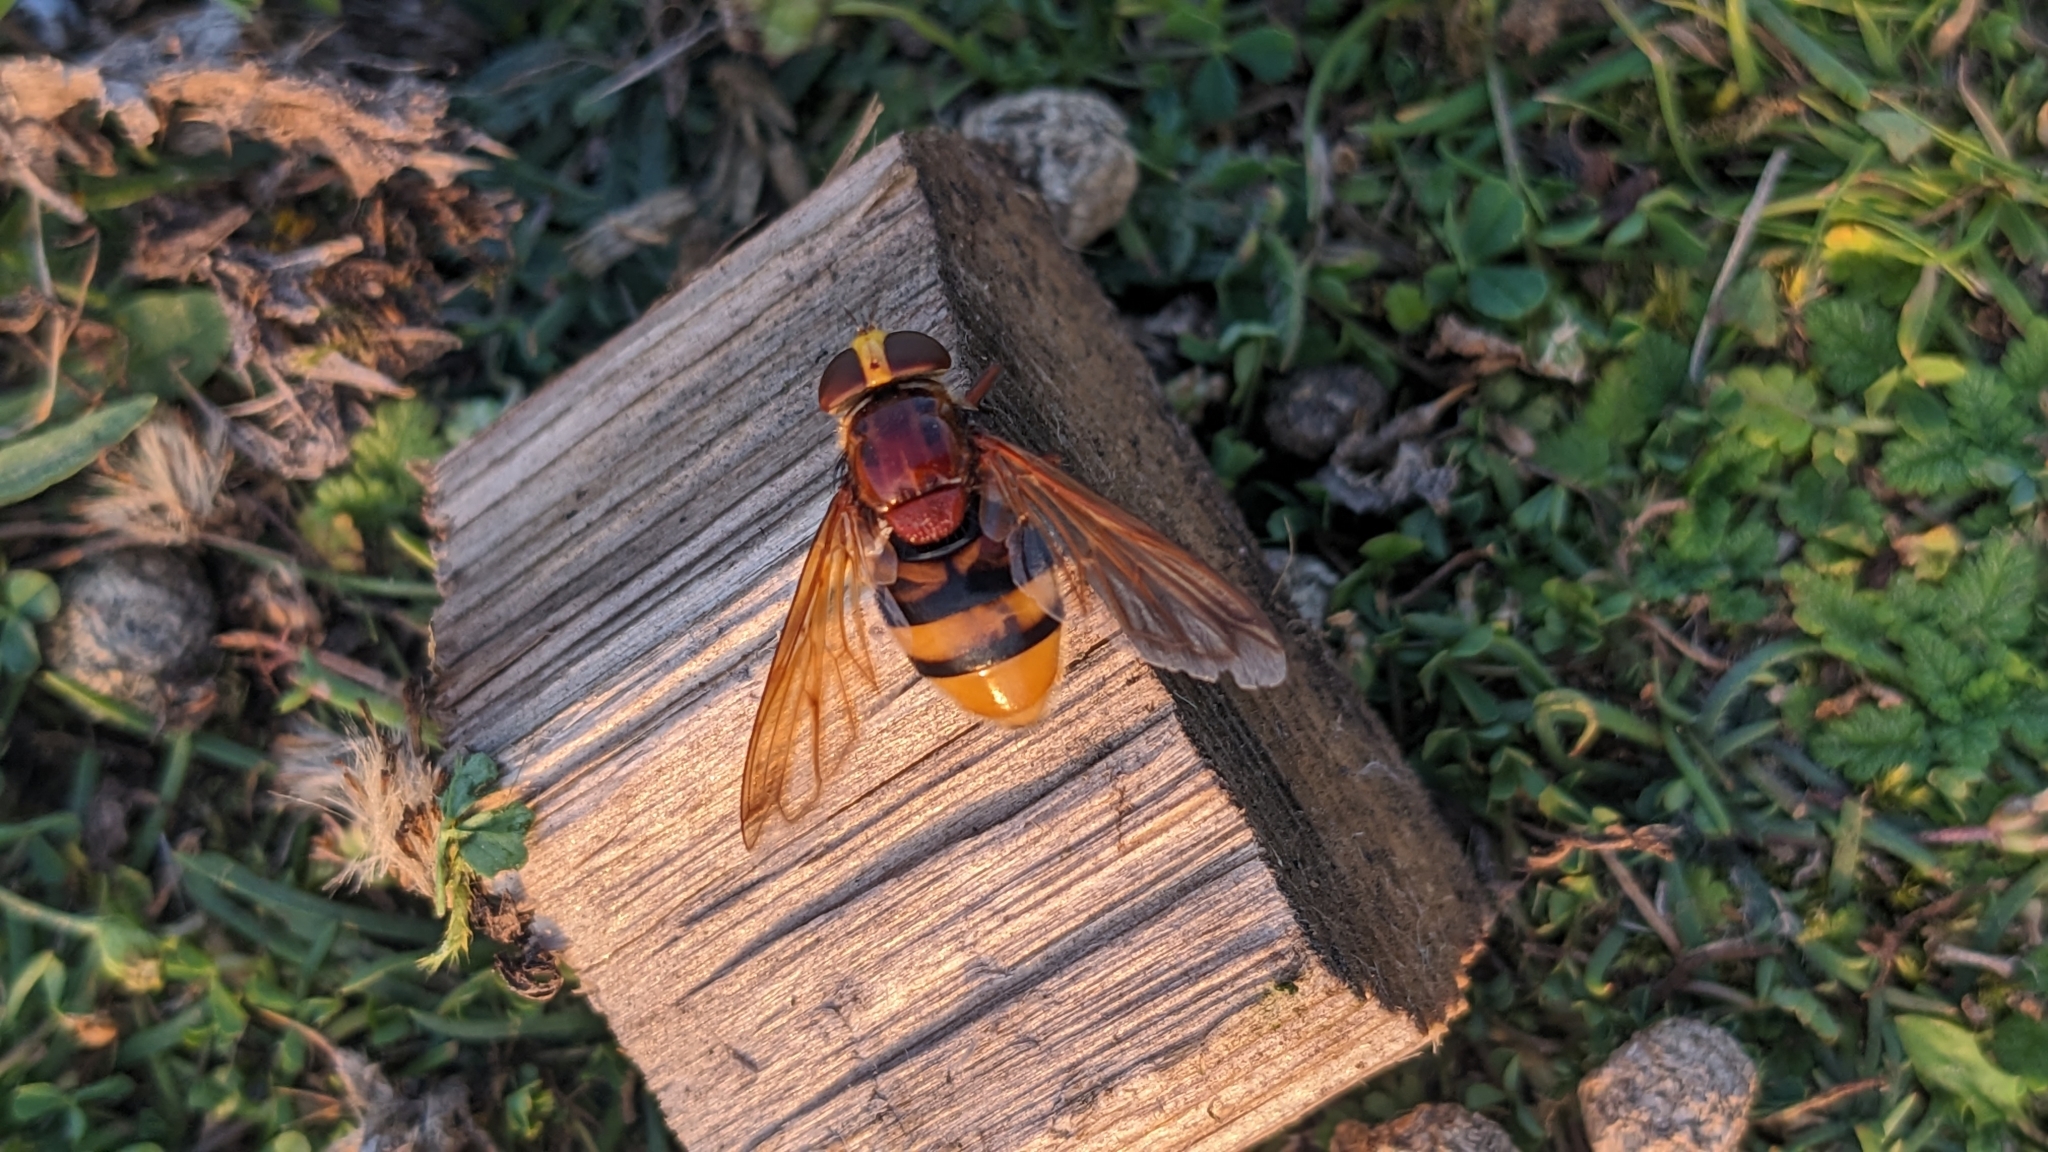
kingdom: Animalia
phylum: Arthropoda
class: Insecta
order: Diptera
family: Syrphidae
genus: Volucella
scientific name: Volucella zonaria
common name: Hornet hoverfly
